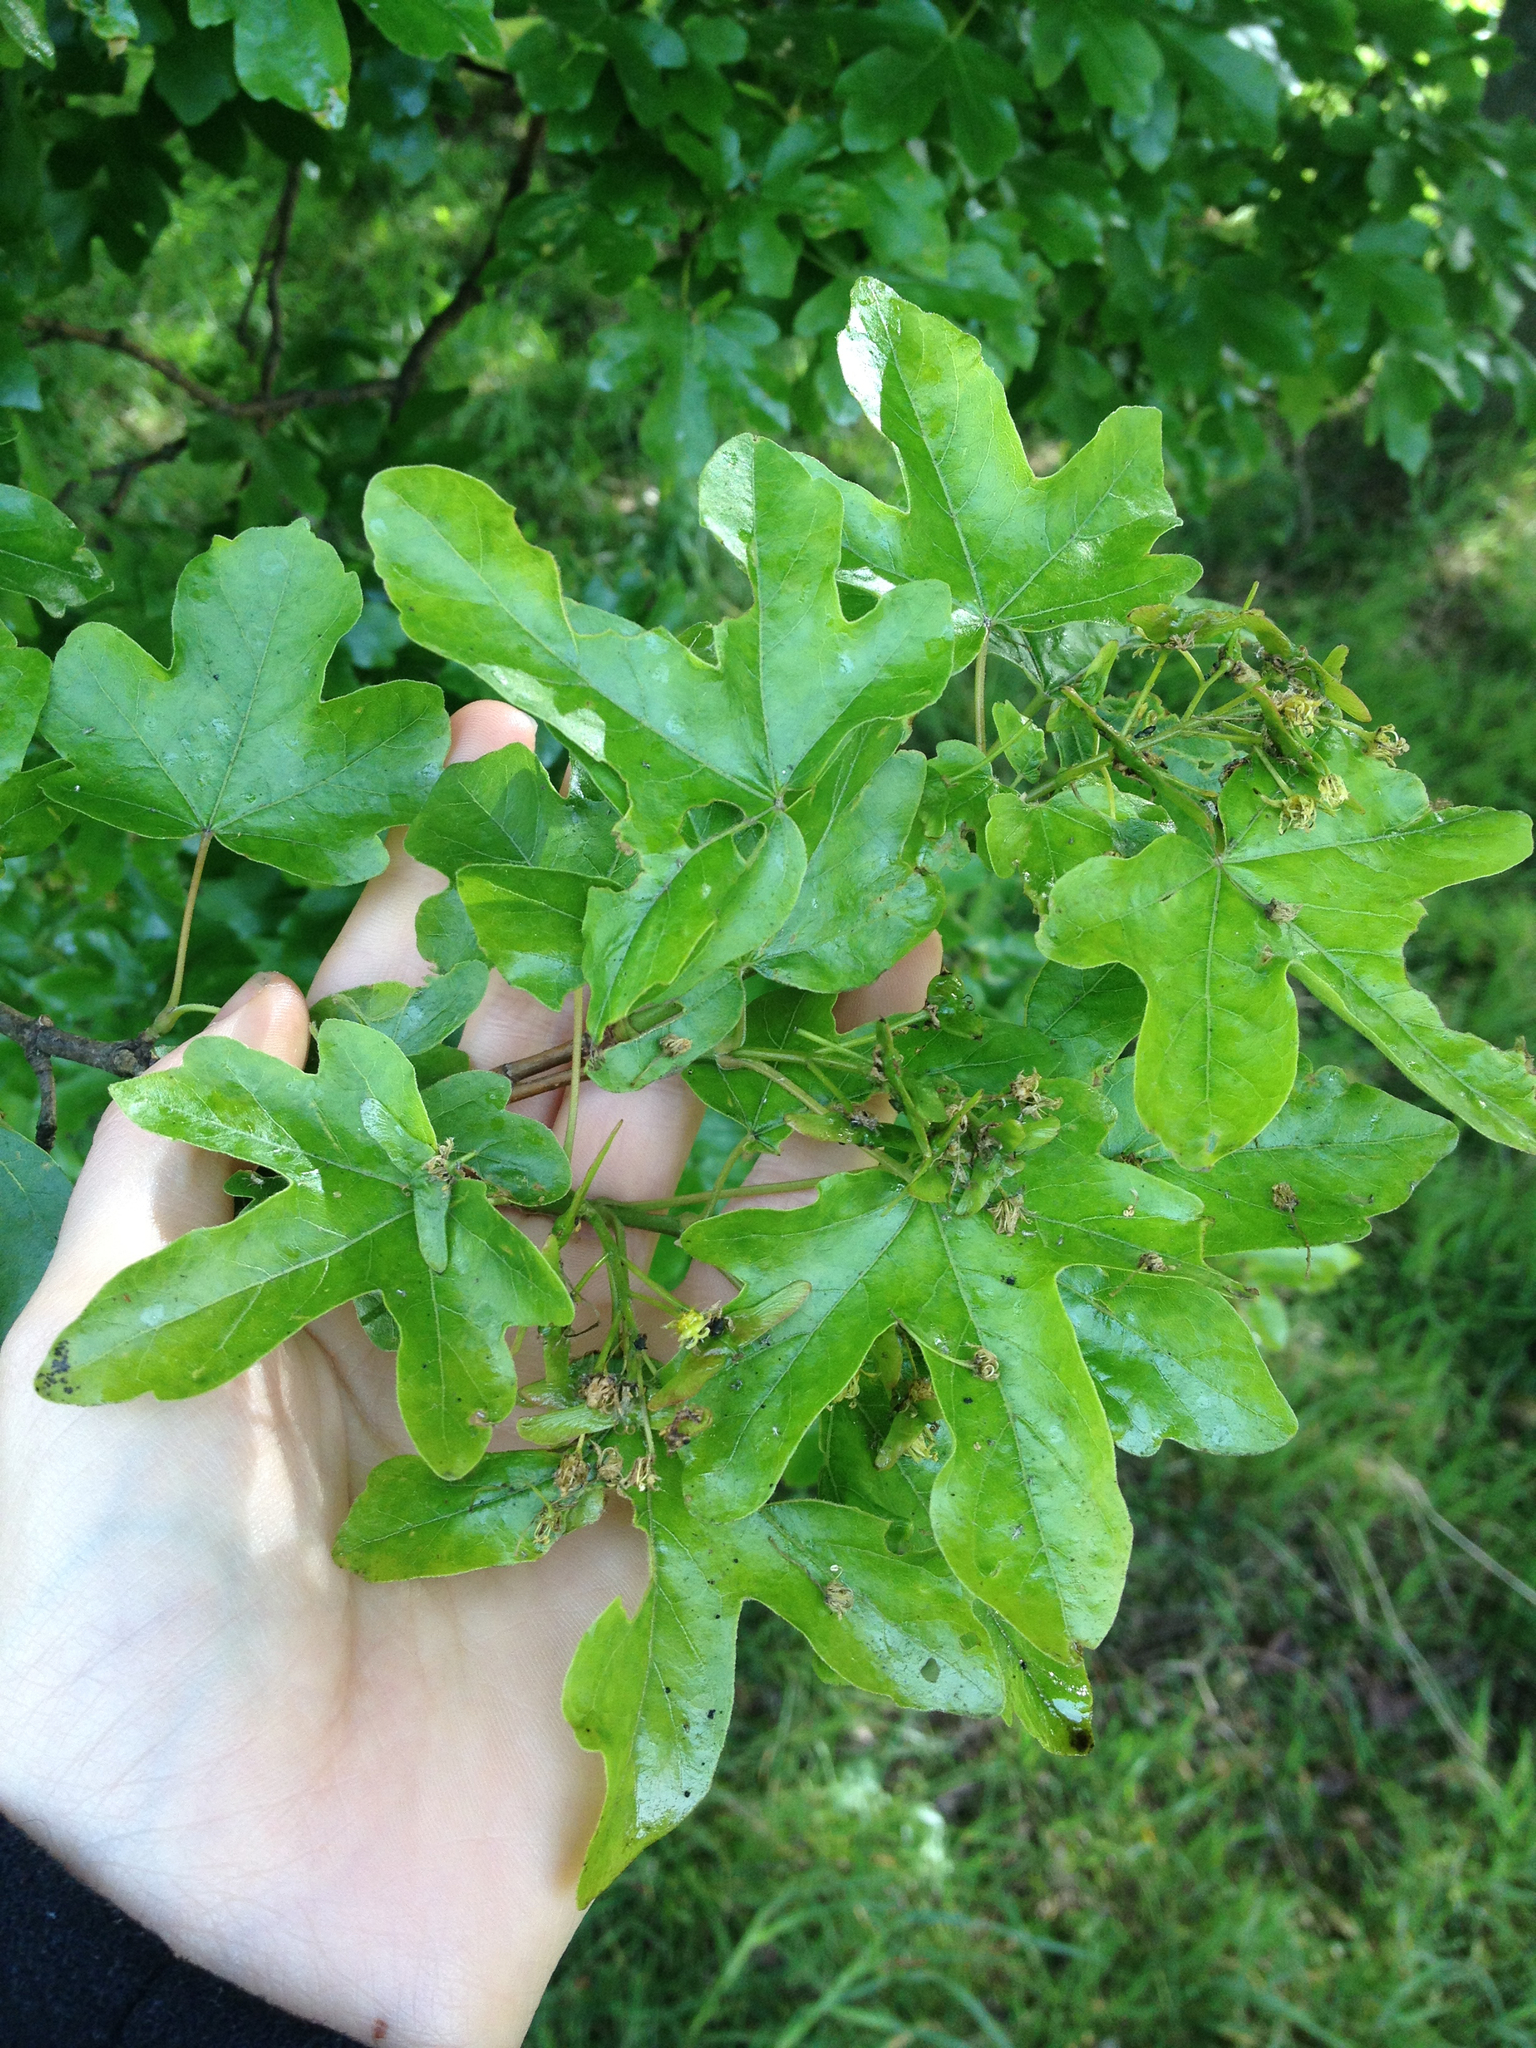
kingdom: Plantae
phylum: Tracheophyta
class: Magnoliopsida
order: Sapindales
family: Sapindaceae
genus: Acer
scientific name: Acer campestre
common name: Field maple
